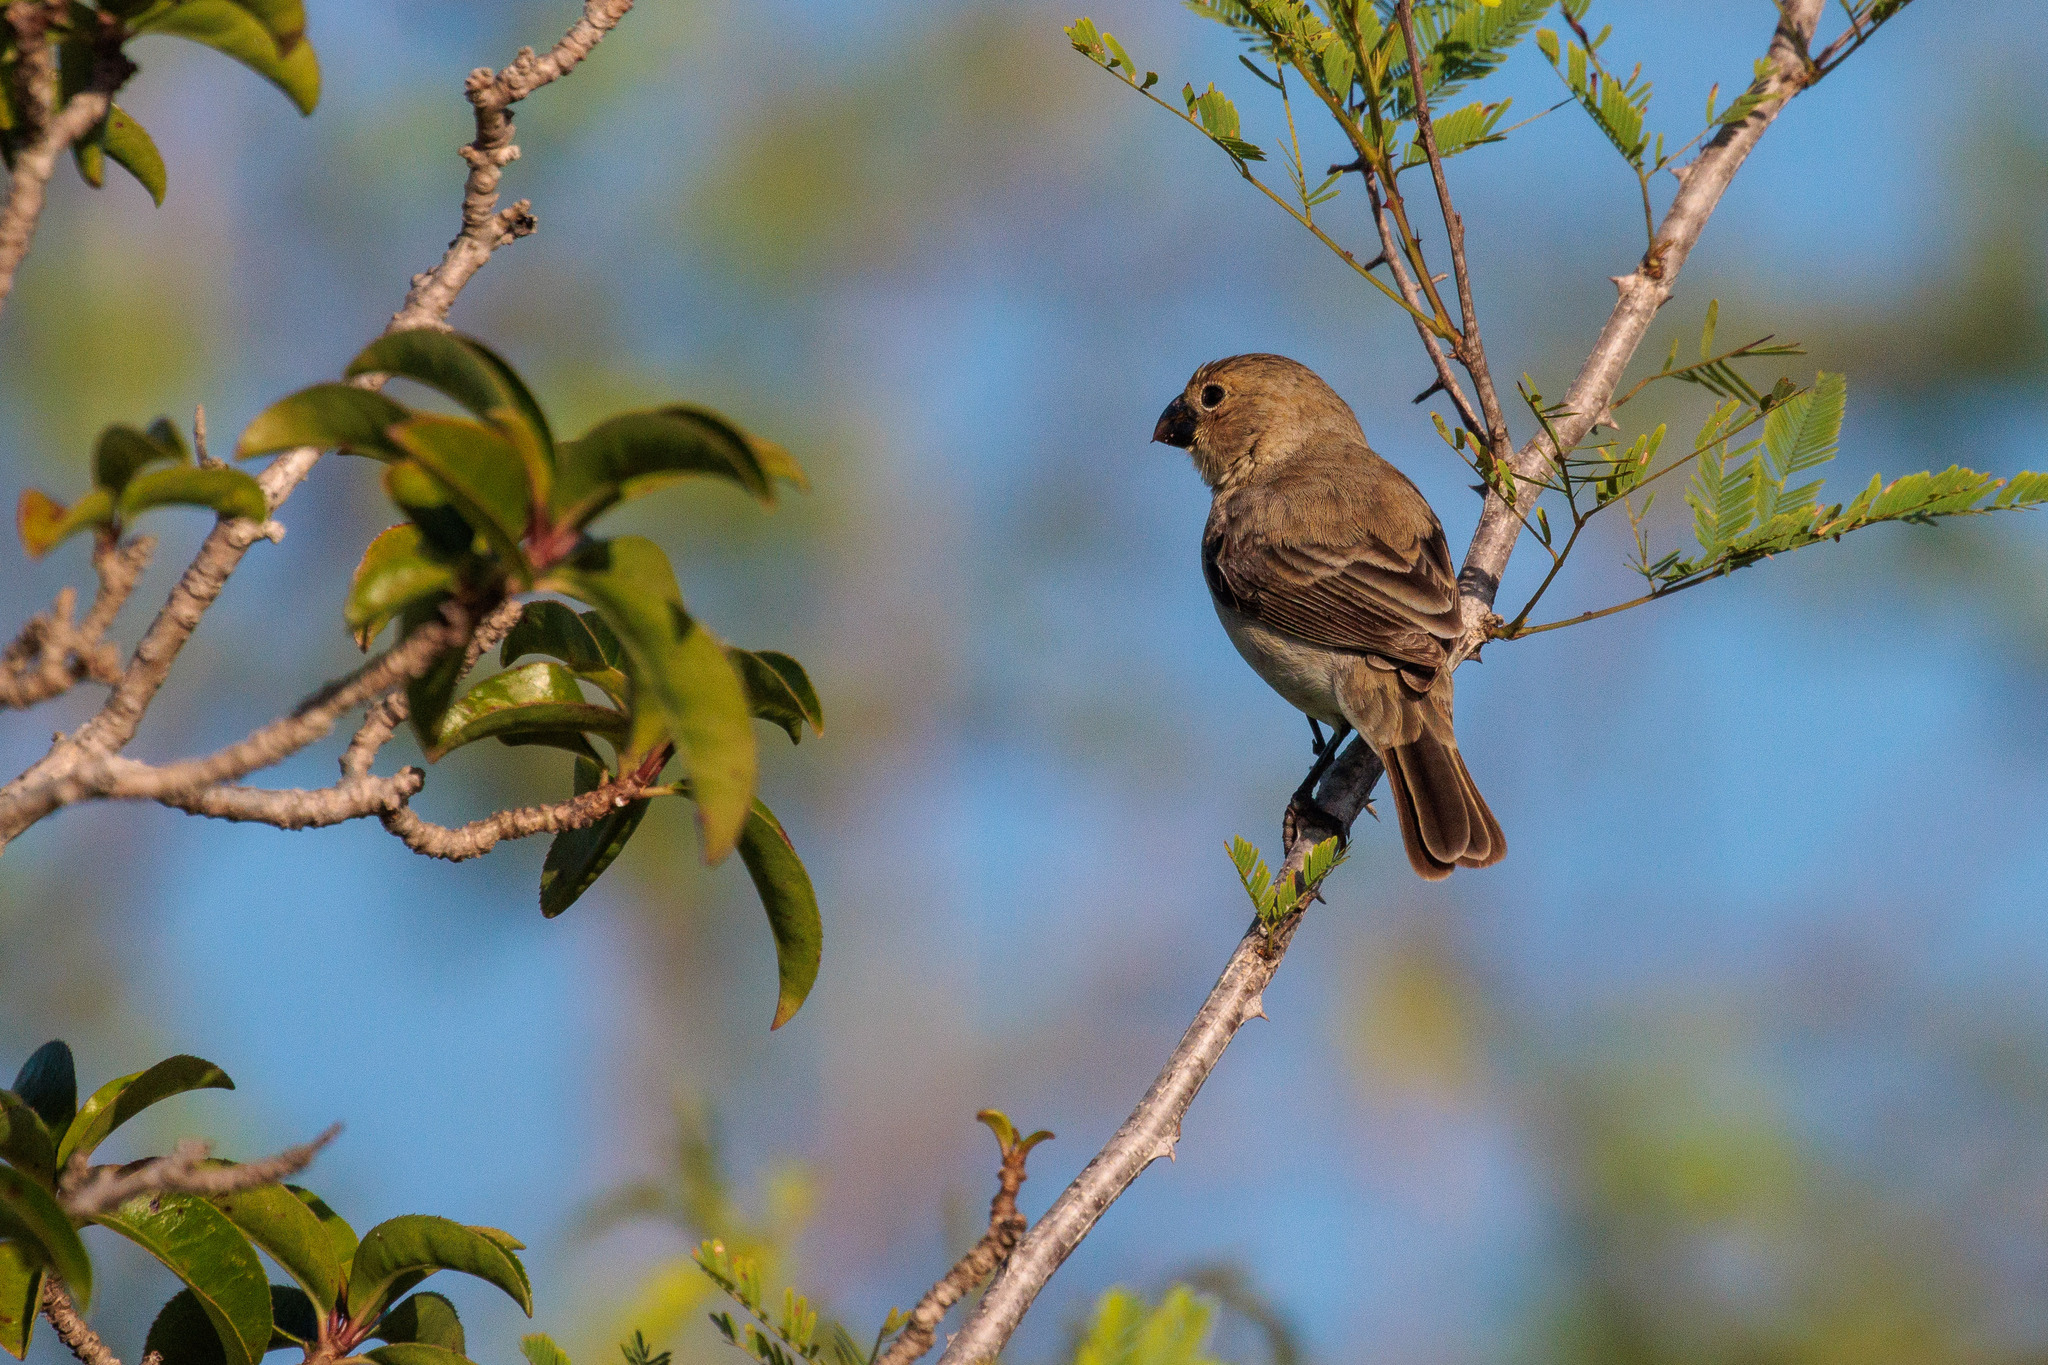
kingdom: Animalia
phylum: Chordata
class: Aves
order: Passeriformes
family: Thraupidae
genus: Sporophila
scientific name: Sporophila albogularis
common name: White-throated seedeater
